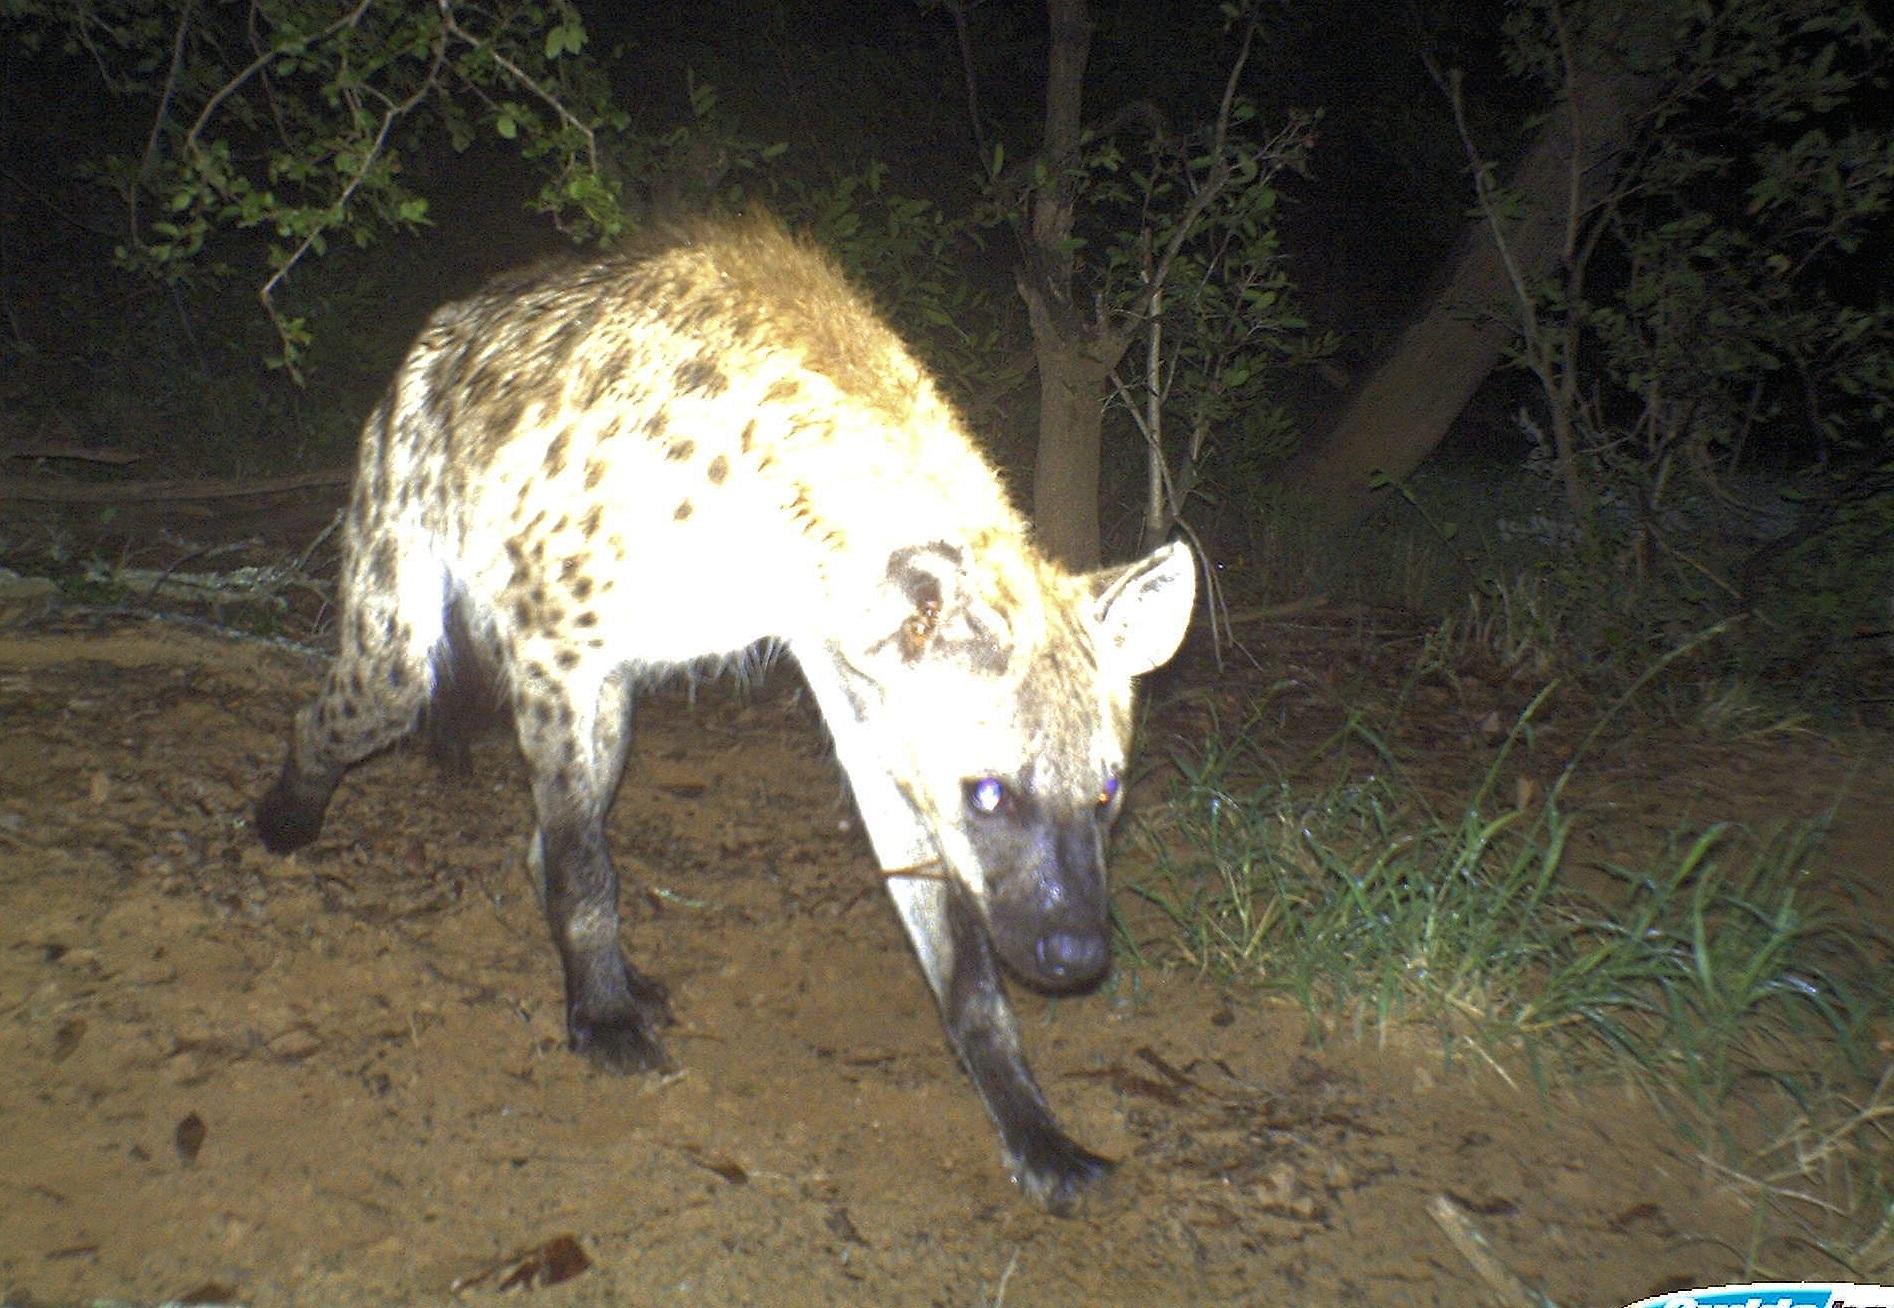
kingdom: Animalia
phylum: Chordata
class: Mammalia
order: Carnivora
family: Hyaenidae
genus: Crocuta
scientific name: Crocuta crocuta
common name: Spotted hyaena
